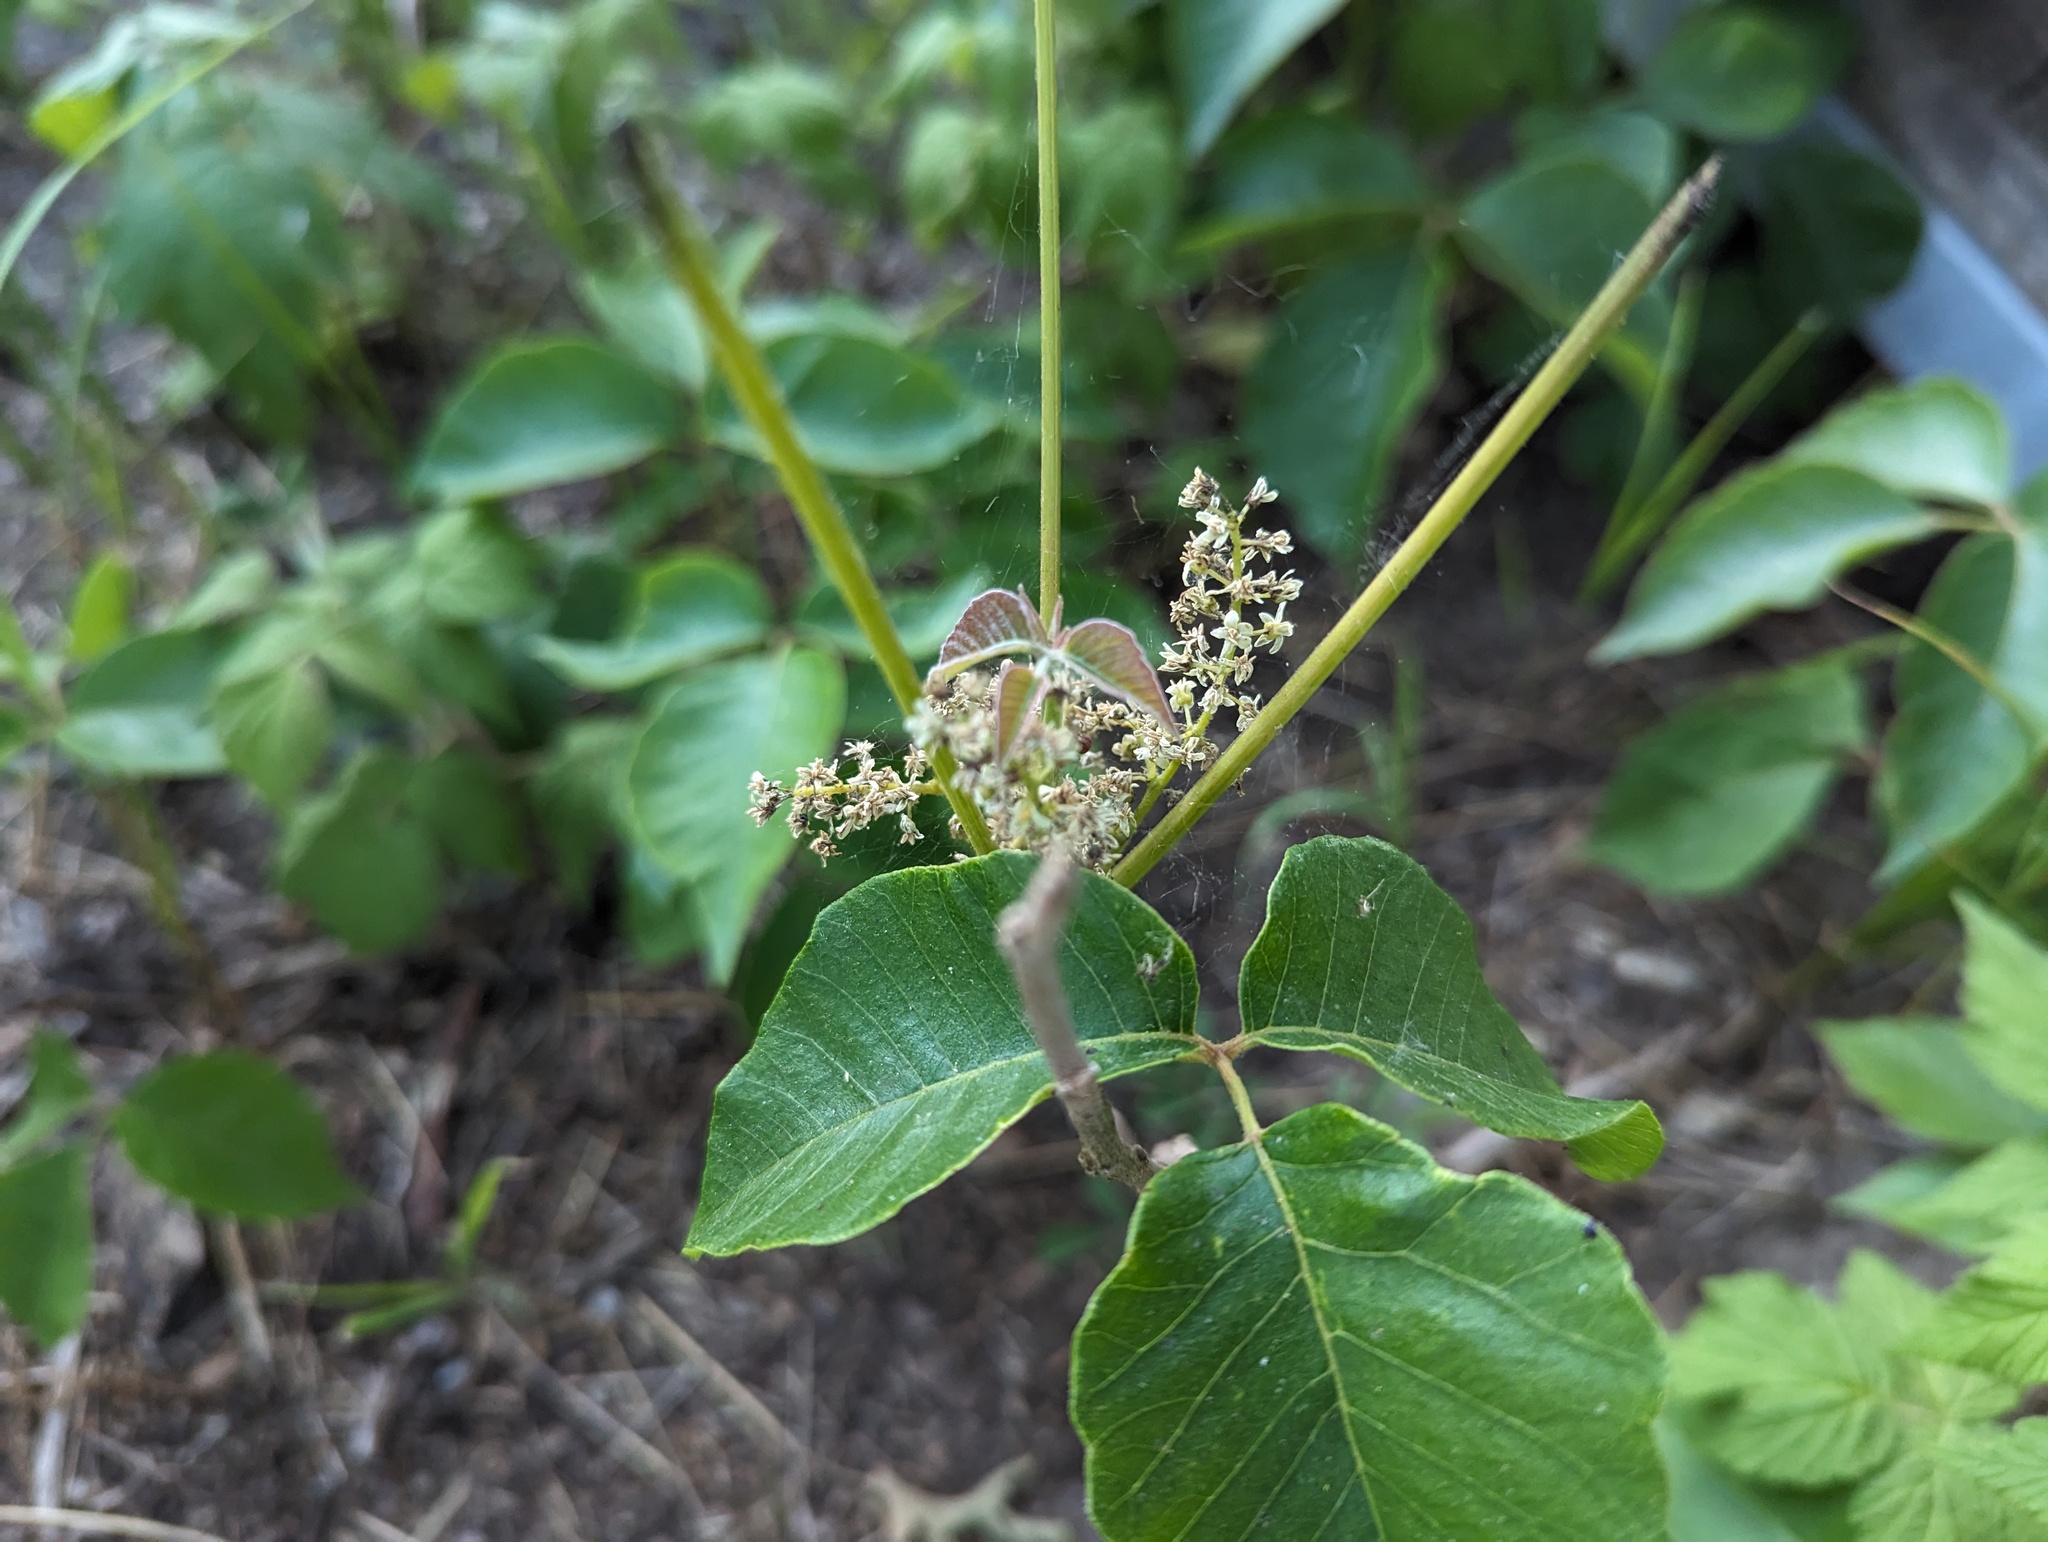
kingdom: Plantae
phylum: Tracheophyta
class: Magnoliopsida
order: Sapindales
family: Anacardiaceae
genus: Toxicodendron
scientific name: Toxicodendron rydbergii
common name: Rydberg's poison-ivy
